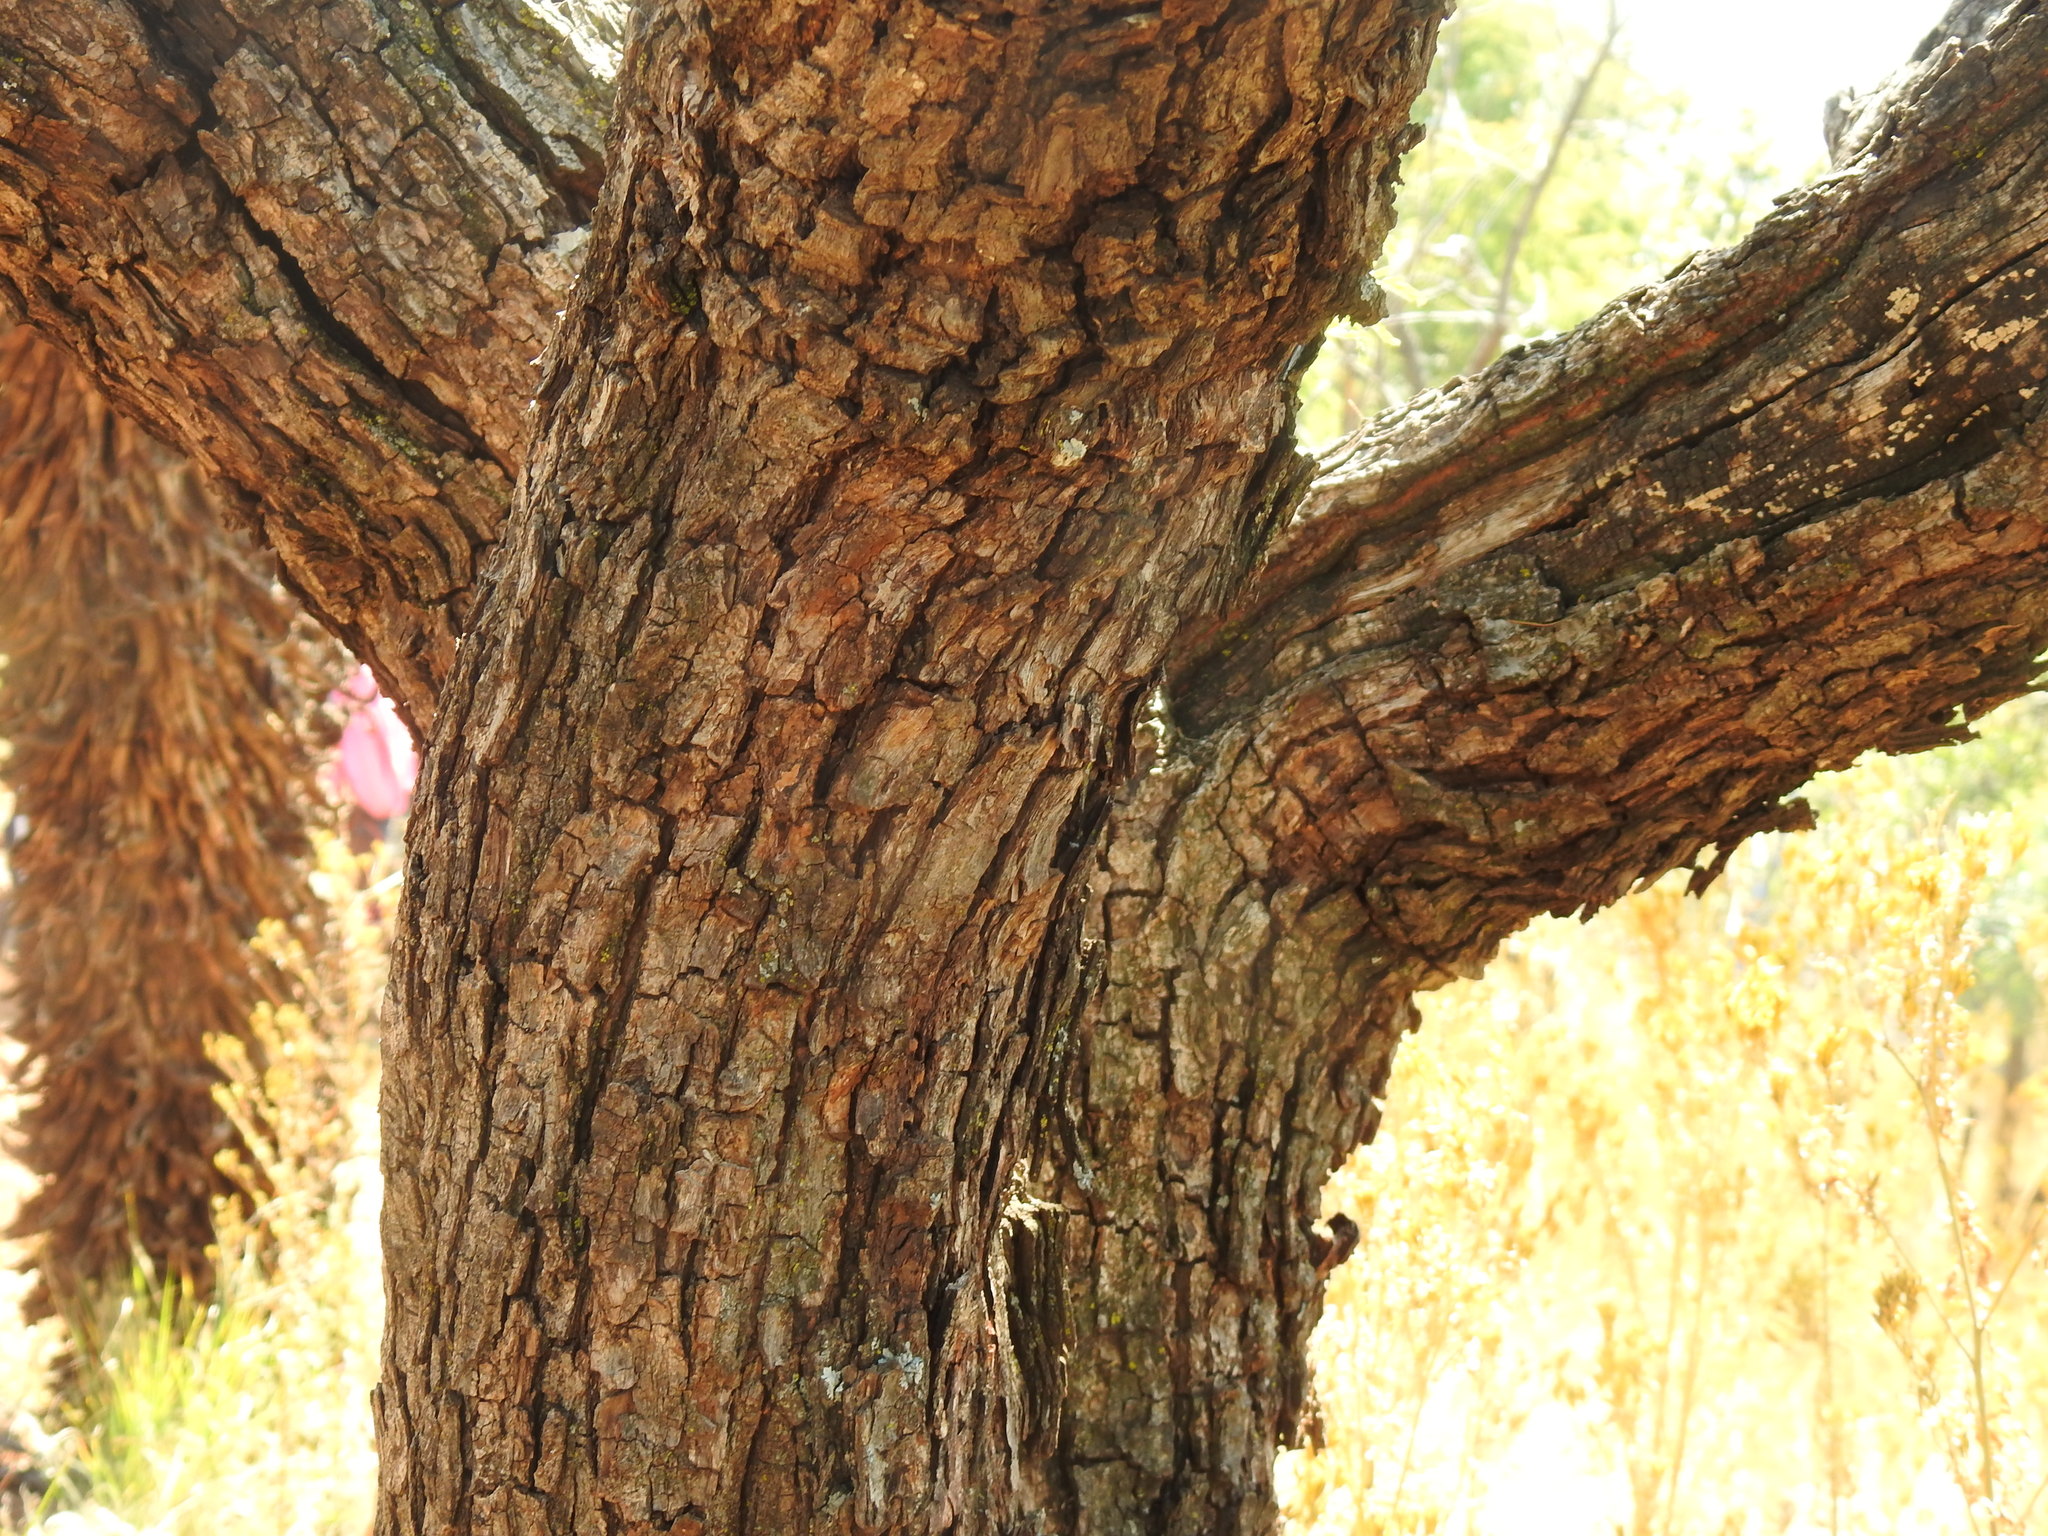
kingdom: Plantae
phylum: Tracheophyta
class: Magnoliopsida
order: Fabales
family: Fabaceae
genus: Senegalia
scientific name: Senegalia caffra
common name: Cat thorn
